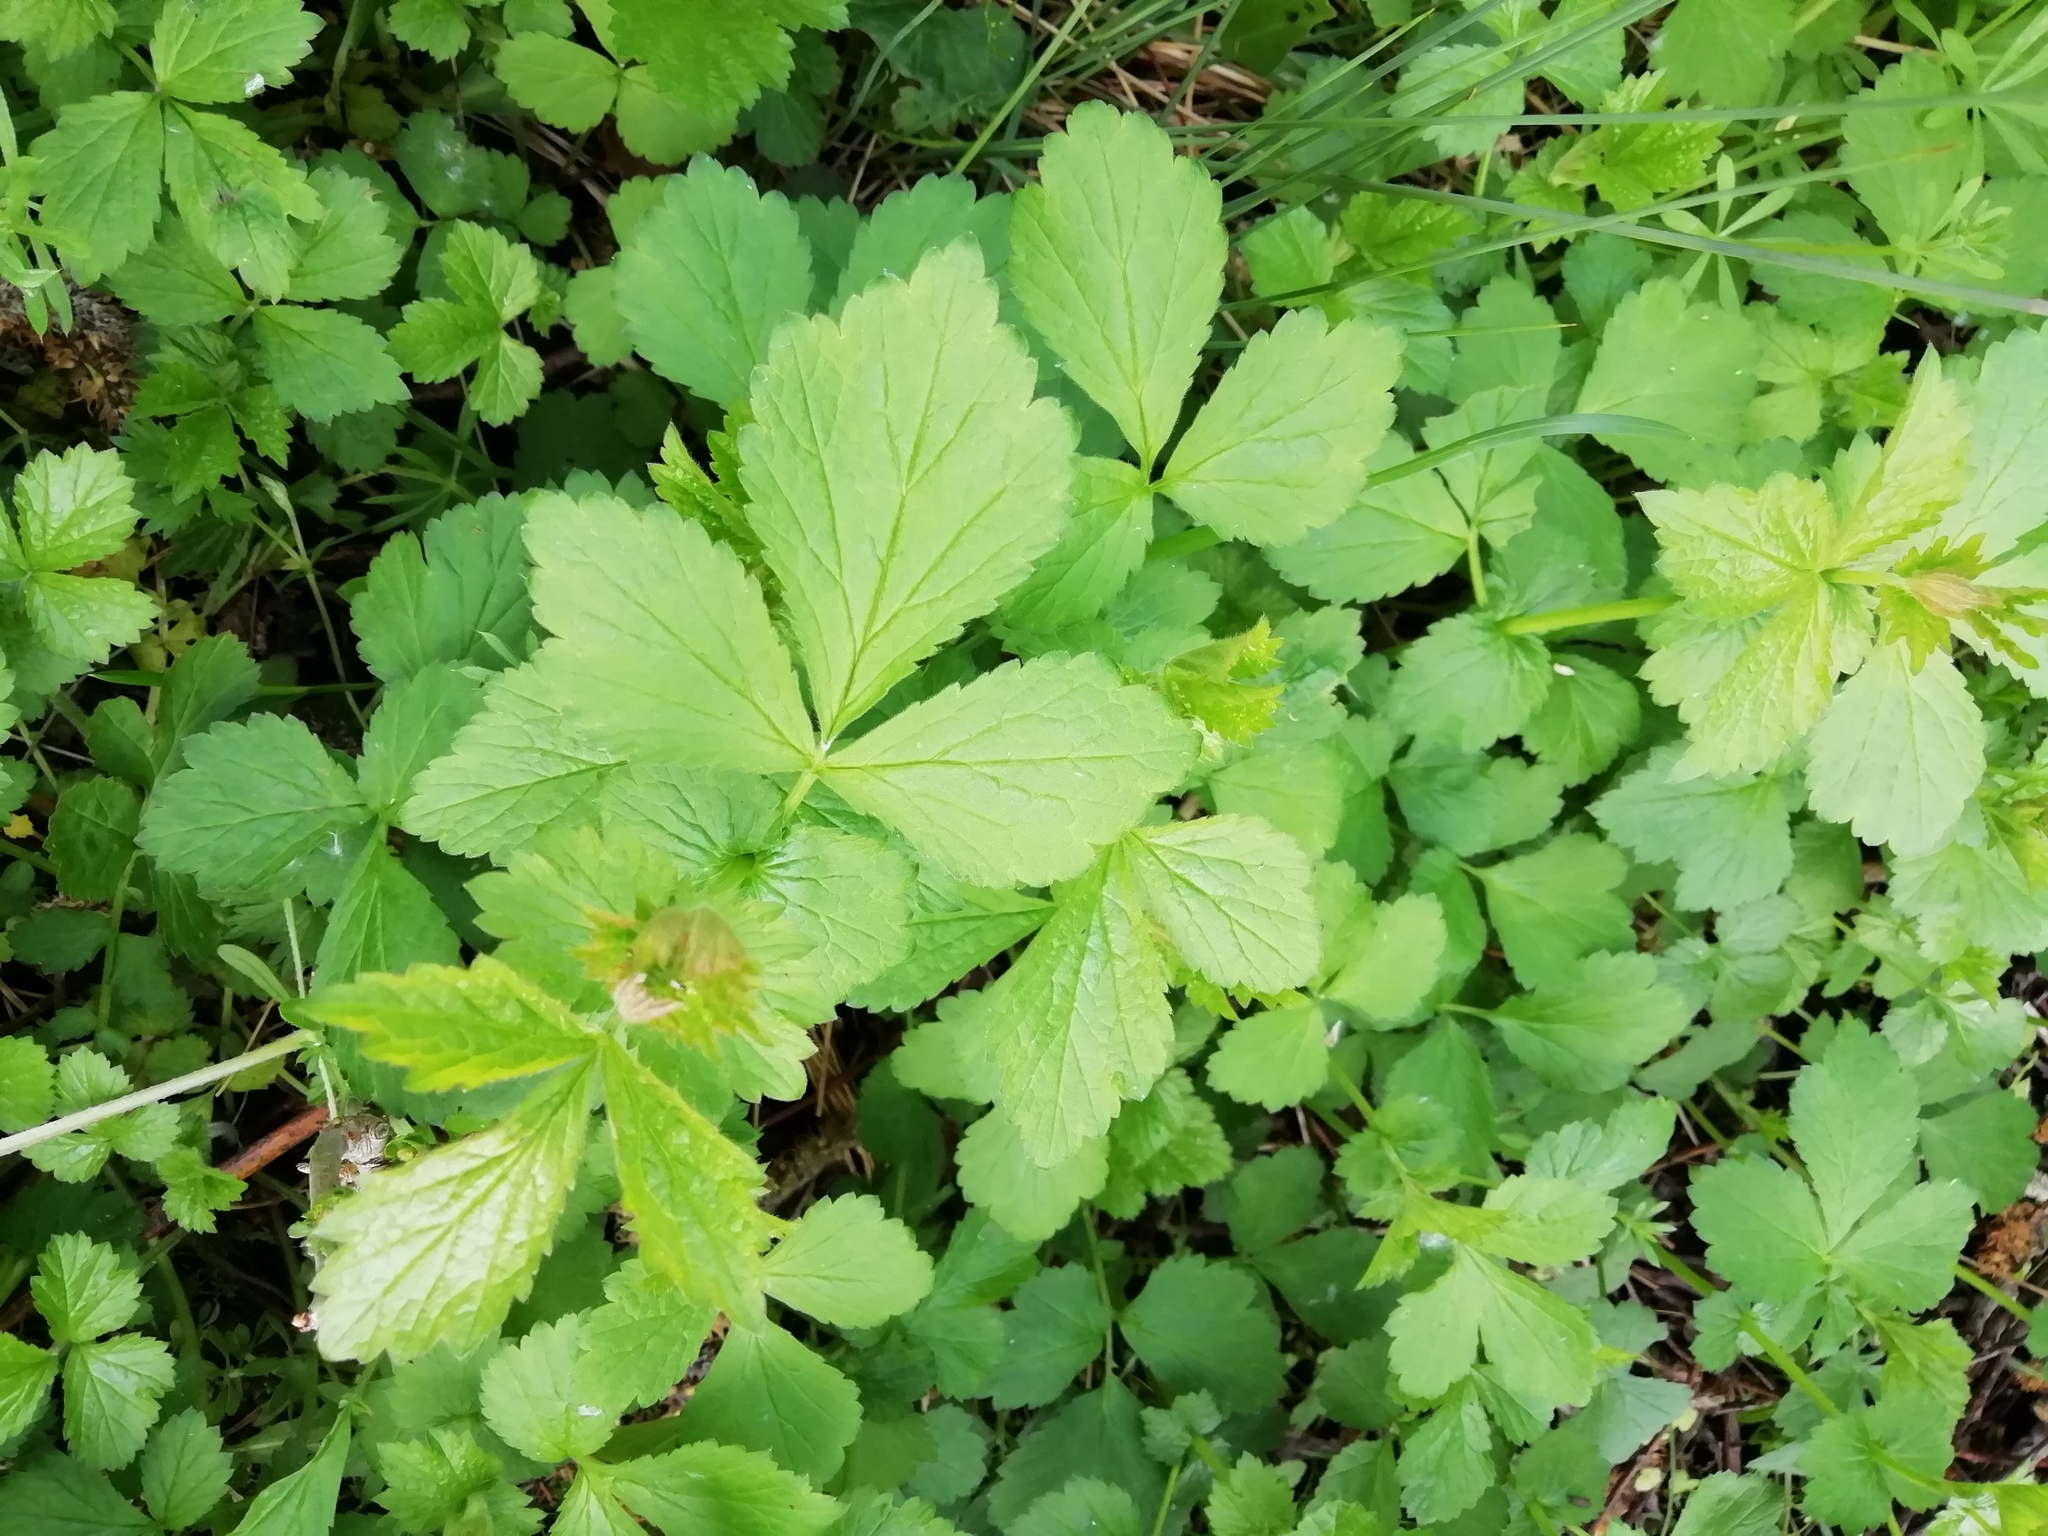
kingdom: Plantae
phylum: Tracheophyta
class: Magnoliopsida
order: Rosales
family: Rosaceae
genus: Geum
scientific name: Geum urbanum
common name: Wood avens
